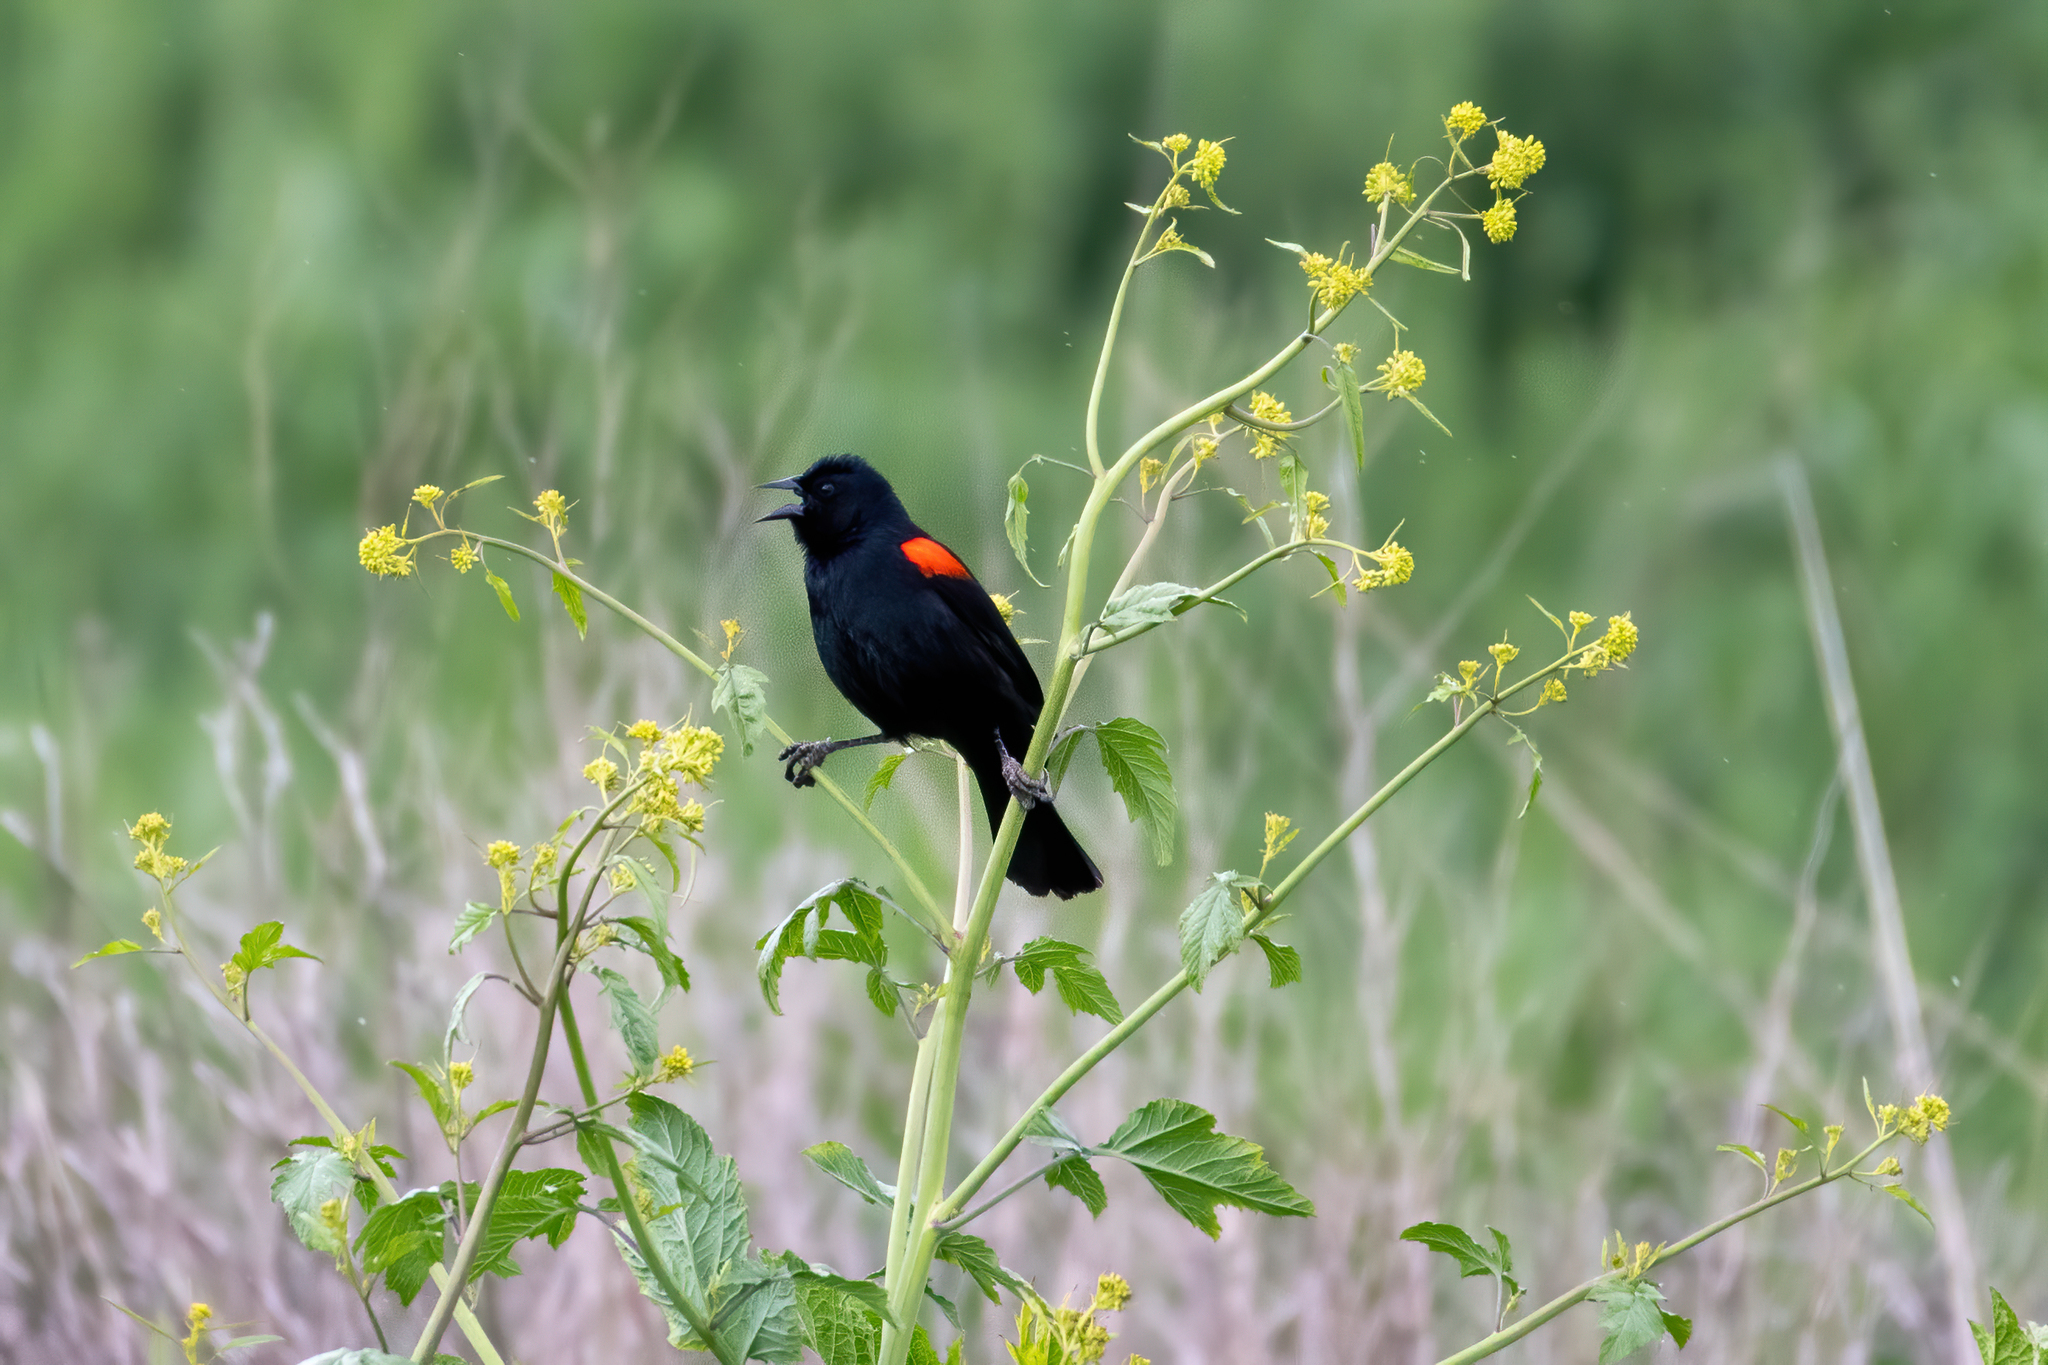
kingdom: Animalia
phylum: Chordata
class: Aves
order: Passeriformes
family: Icteridae
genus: Agelaius
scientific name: Agelaius phoeniceus
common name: Red-winged blackbird
